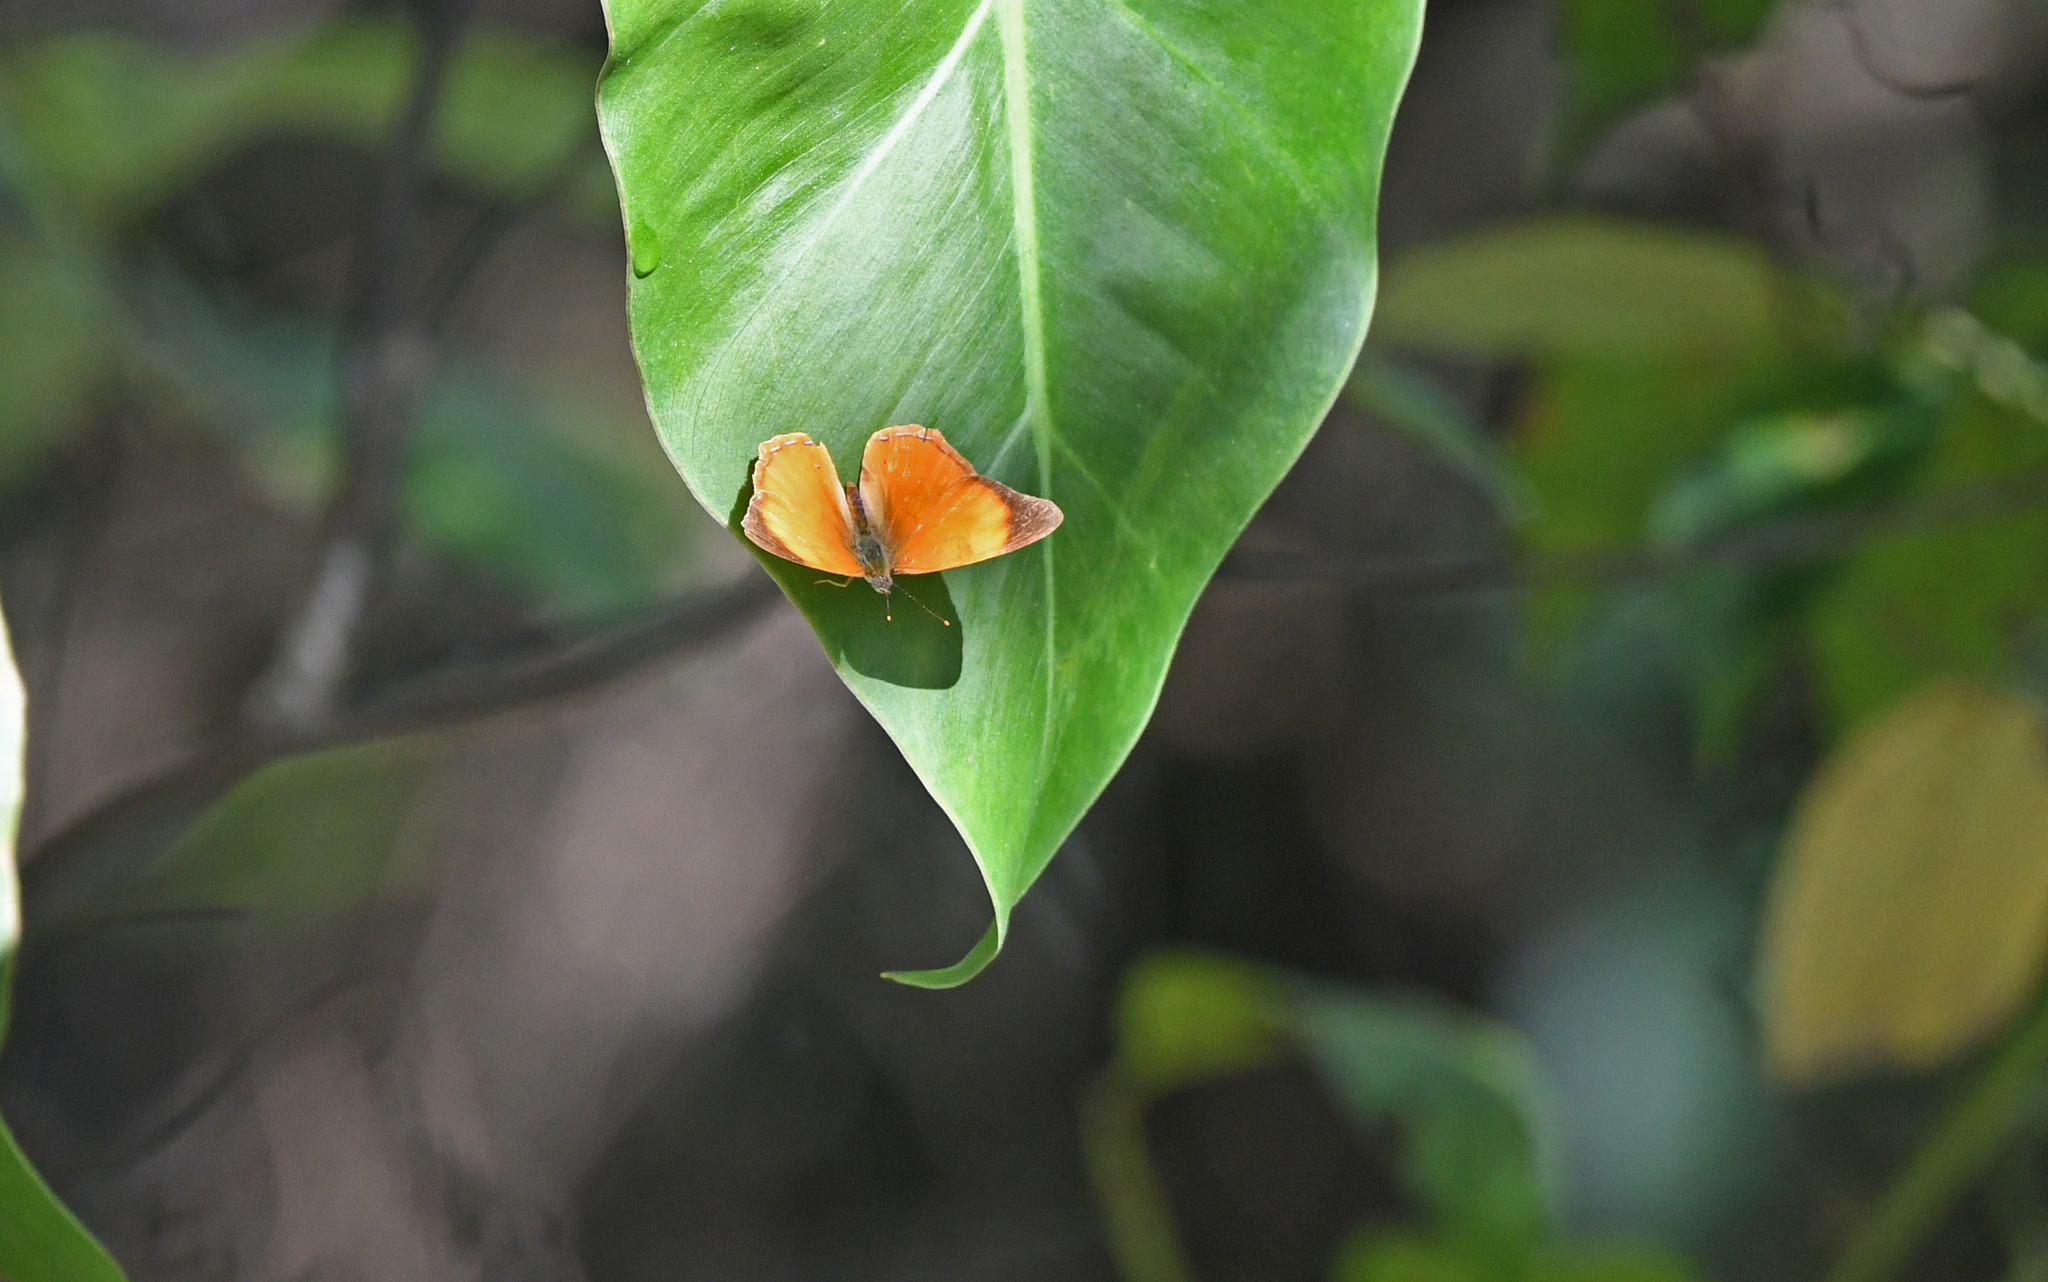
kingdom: Animalia
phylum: Arthropoda
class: Insecta
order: Lepidoptera
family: Nymphalidae
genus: Nica
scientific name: Nica flavilla
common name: Mandarin nica
